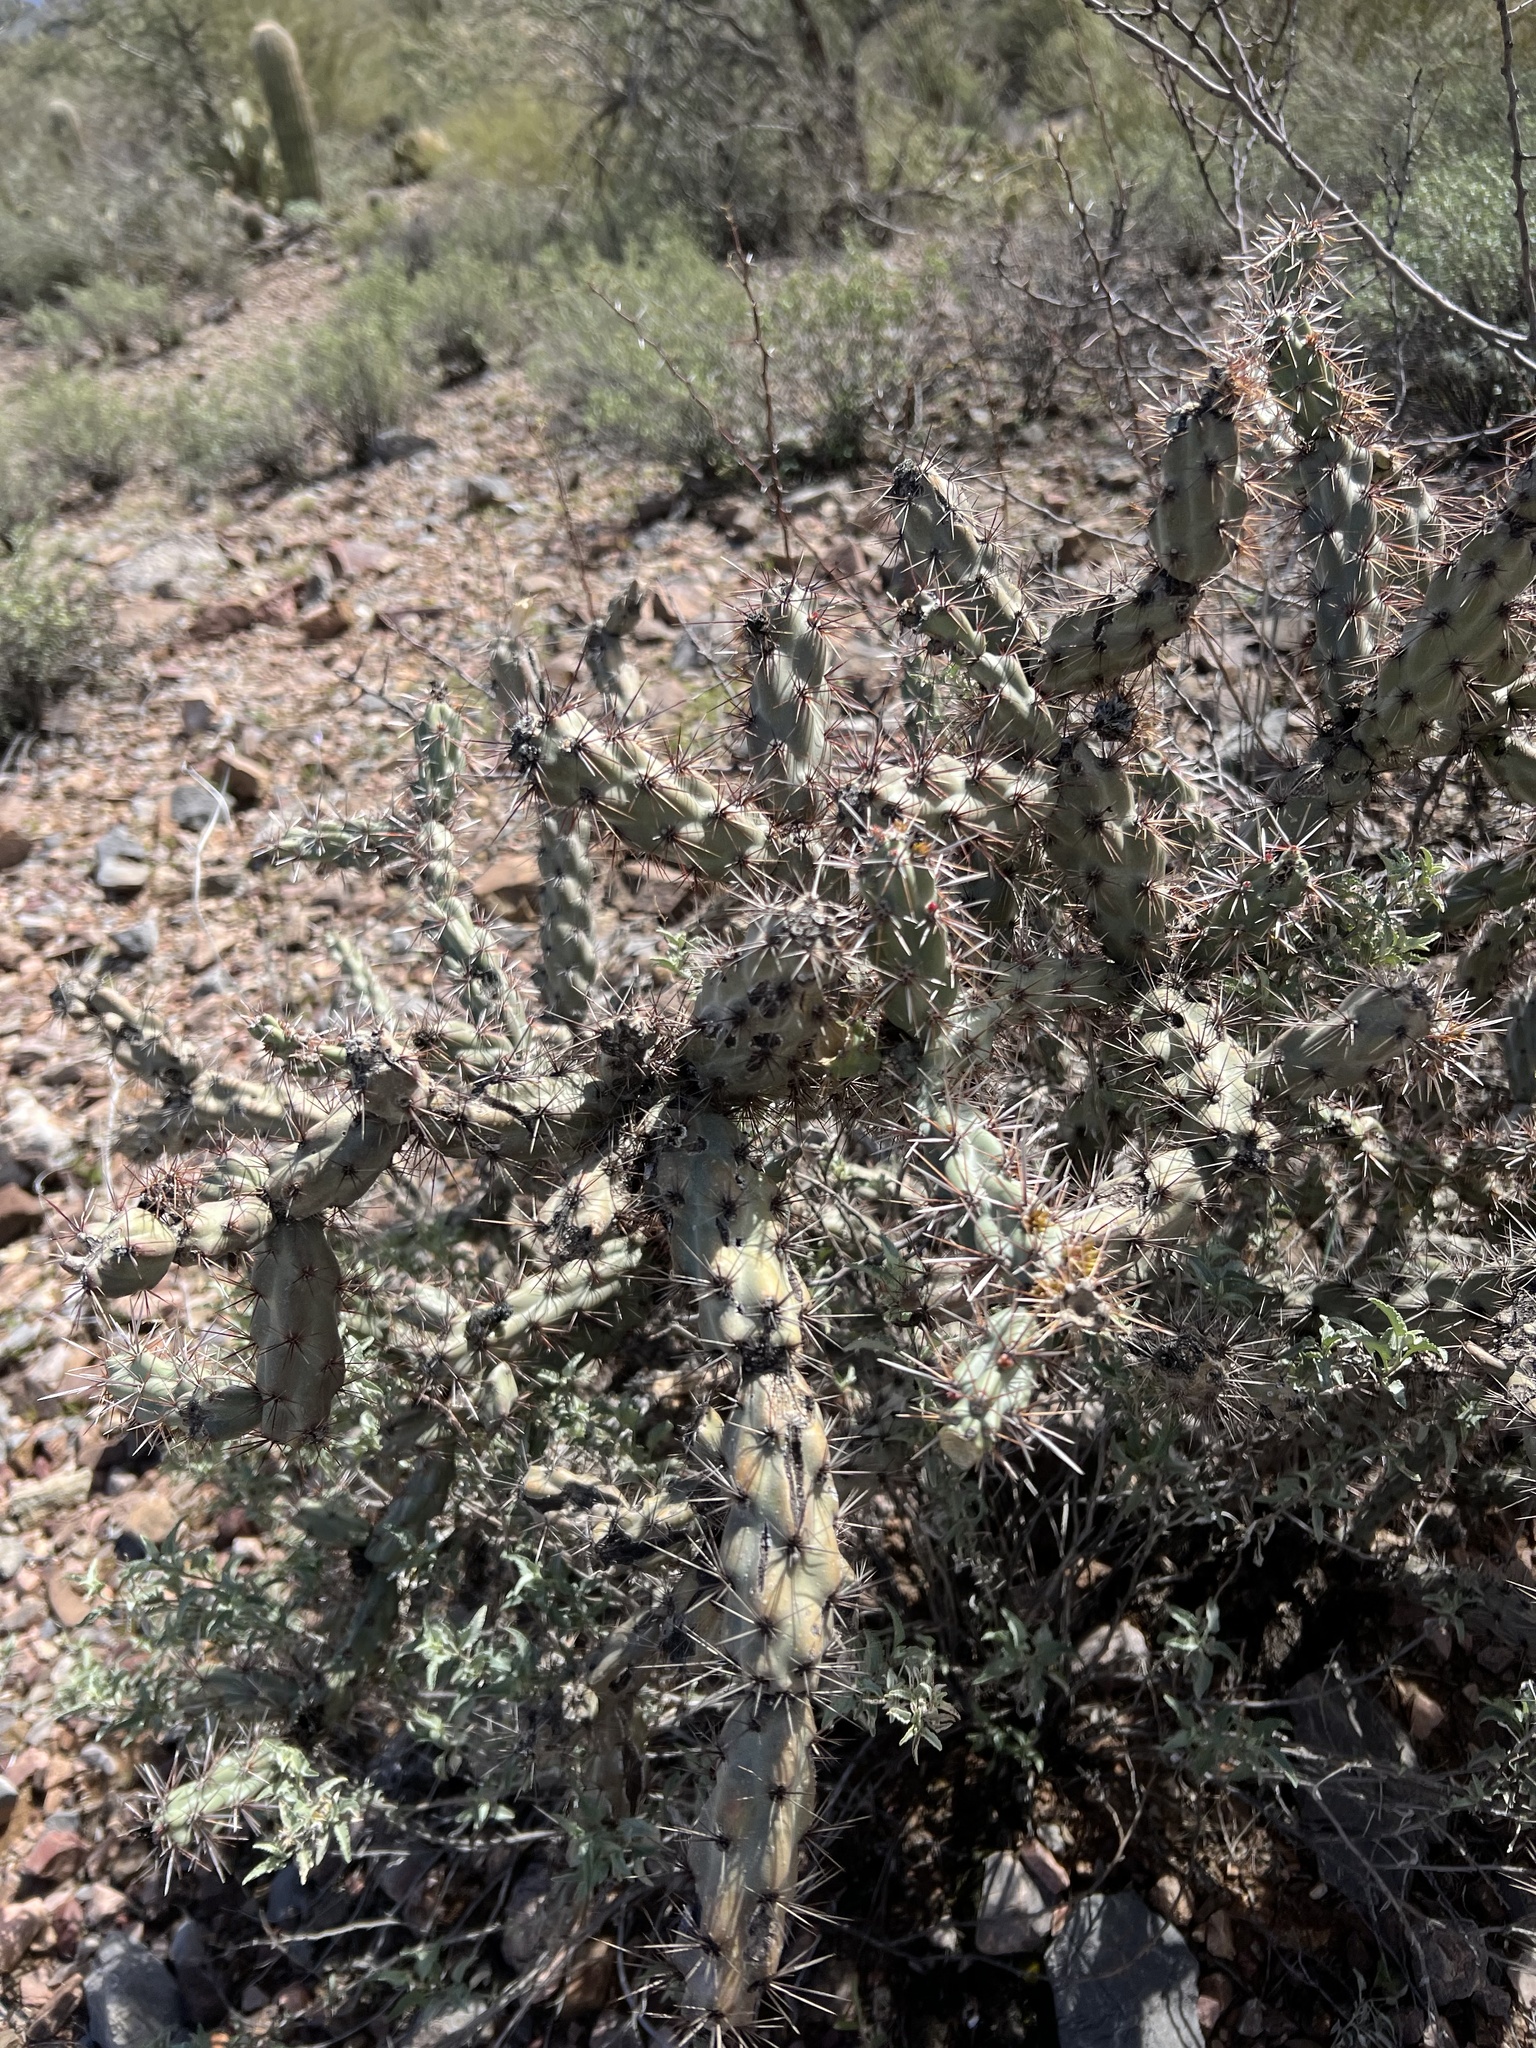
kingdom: Plantae
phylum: Tracheophyta
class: Magnoliopsida
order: Caryophyllales
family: Cactaceae
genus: Cylindropuntia
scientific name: Cylindropuntia acanthocarpa
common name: Buckhorn cholla
